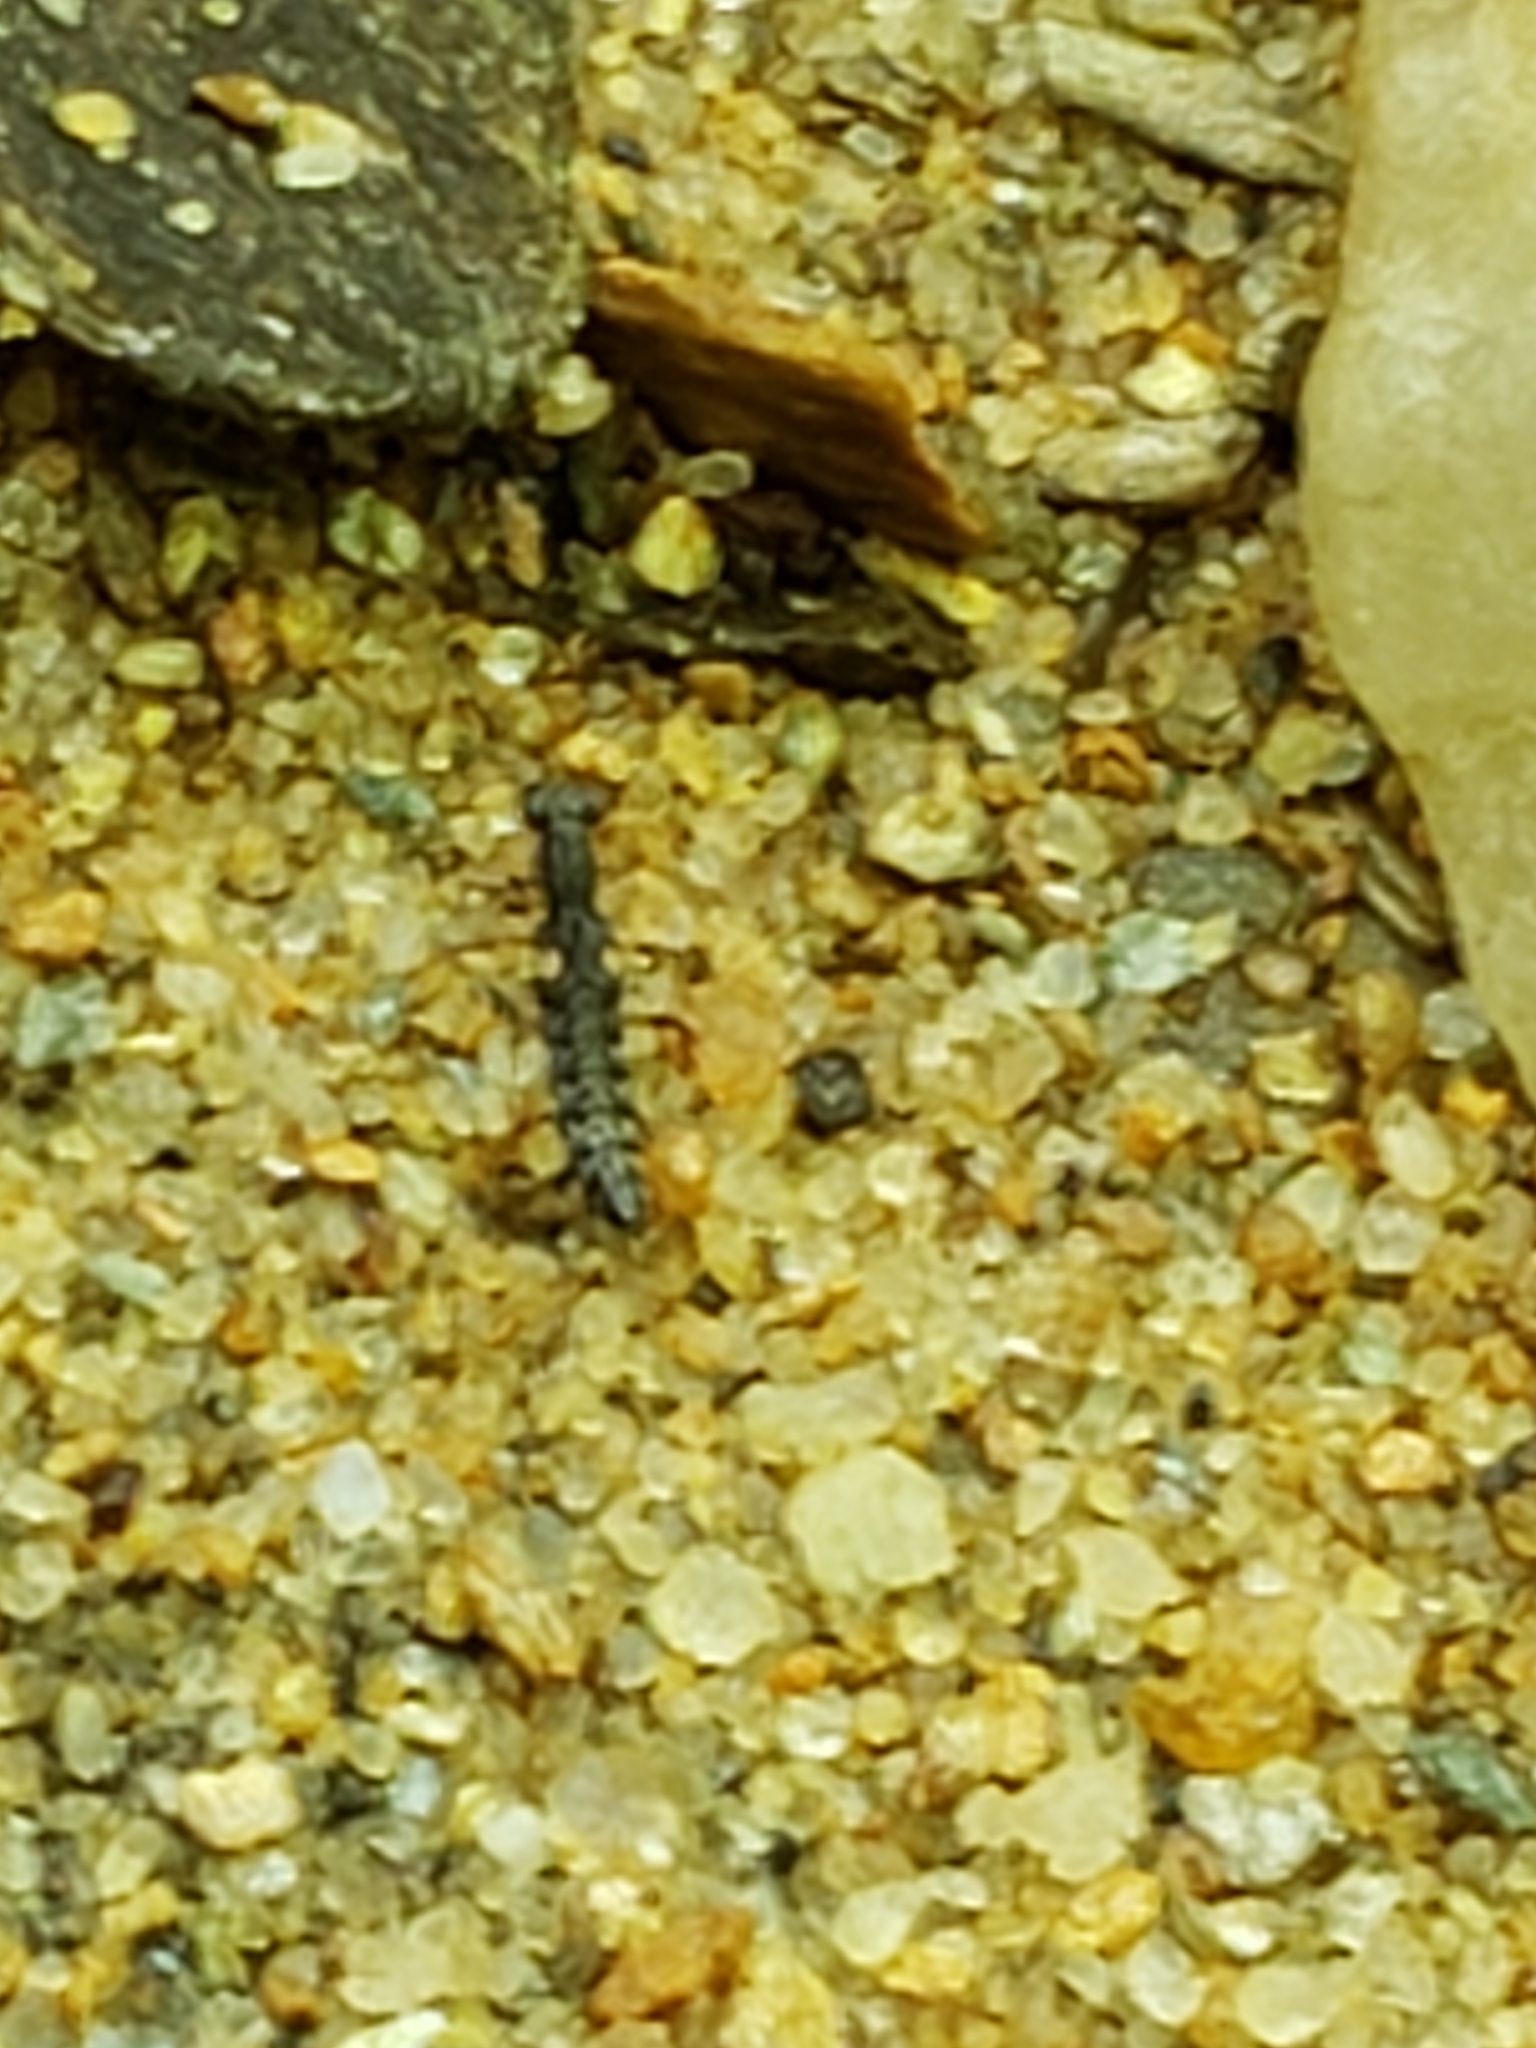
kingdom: Animalia
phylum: Arthropoda
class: Insecta
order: Coleoptera
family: Staphylinidae
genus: Stenus
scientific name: Stenus colon
